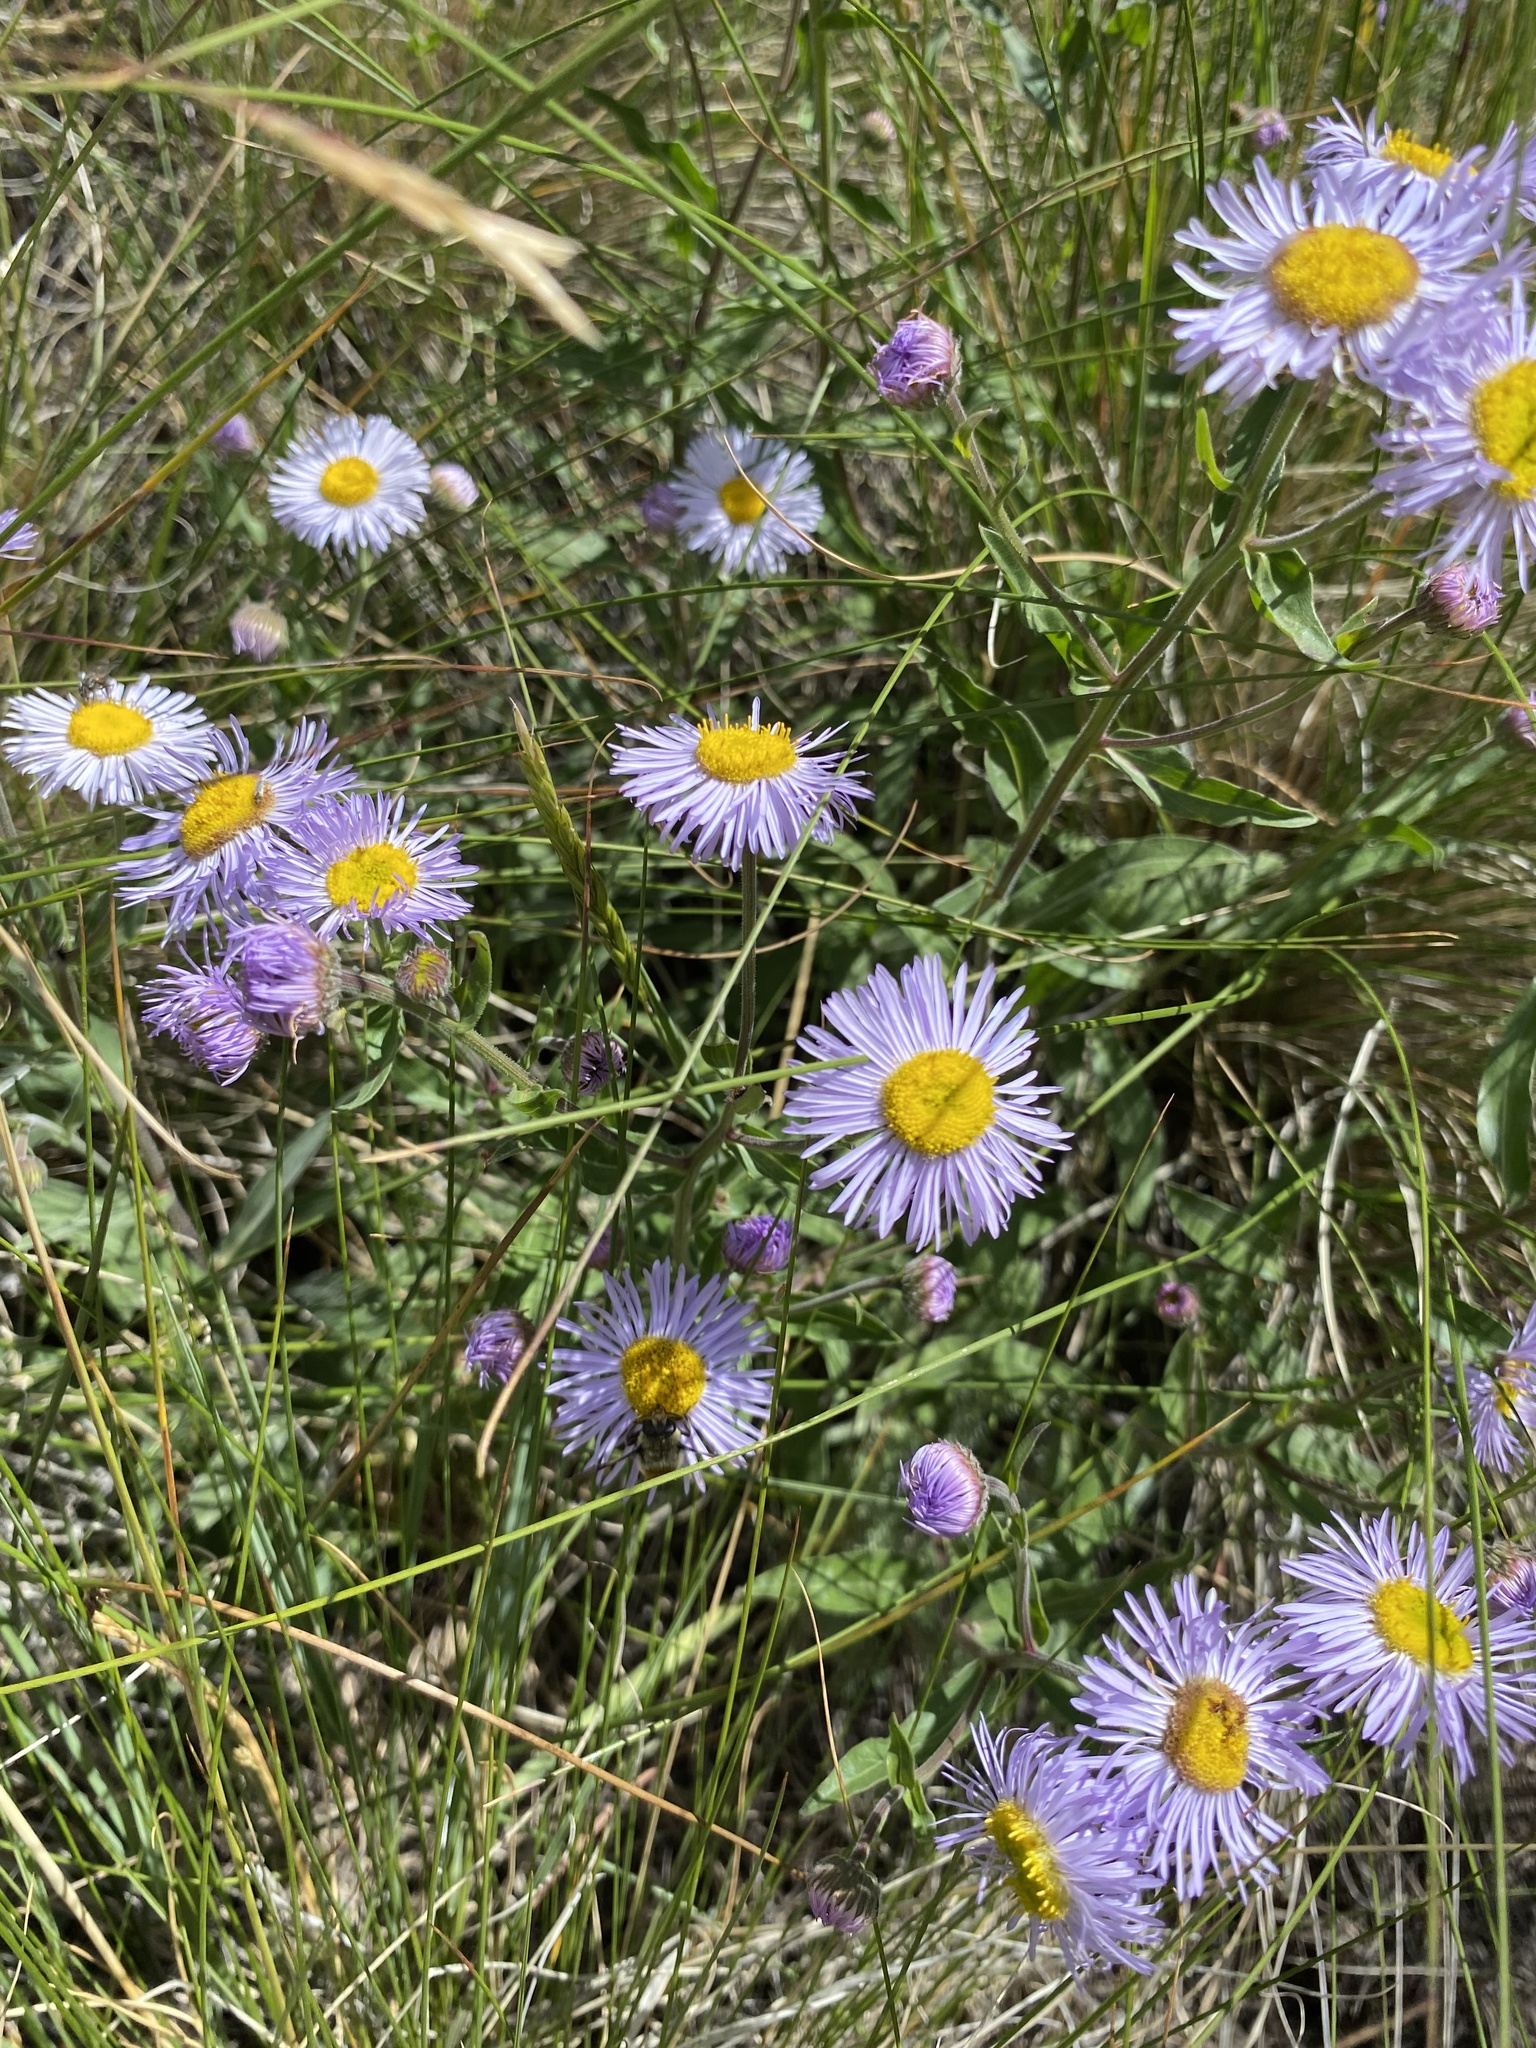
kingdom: Plantae
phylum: Tracheophyta
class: Magnoliopsida
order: Asterales
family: Asteraceae
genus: Erigeron
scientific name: Erigeron speciosus
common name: Aspen fleabane
